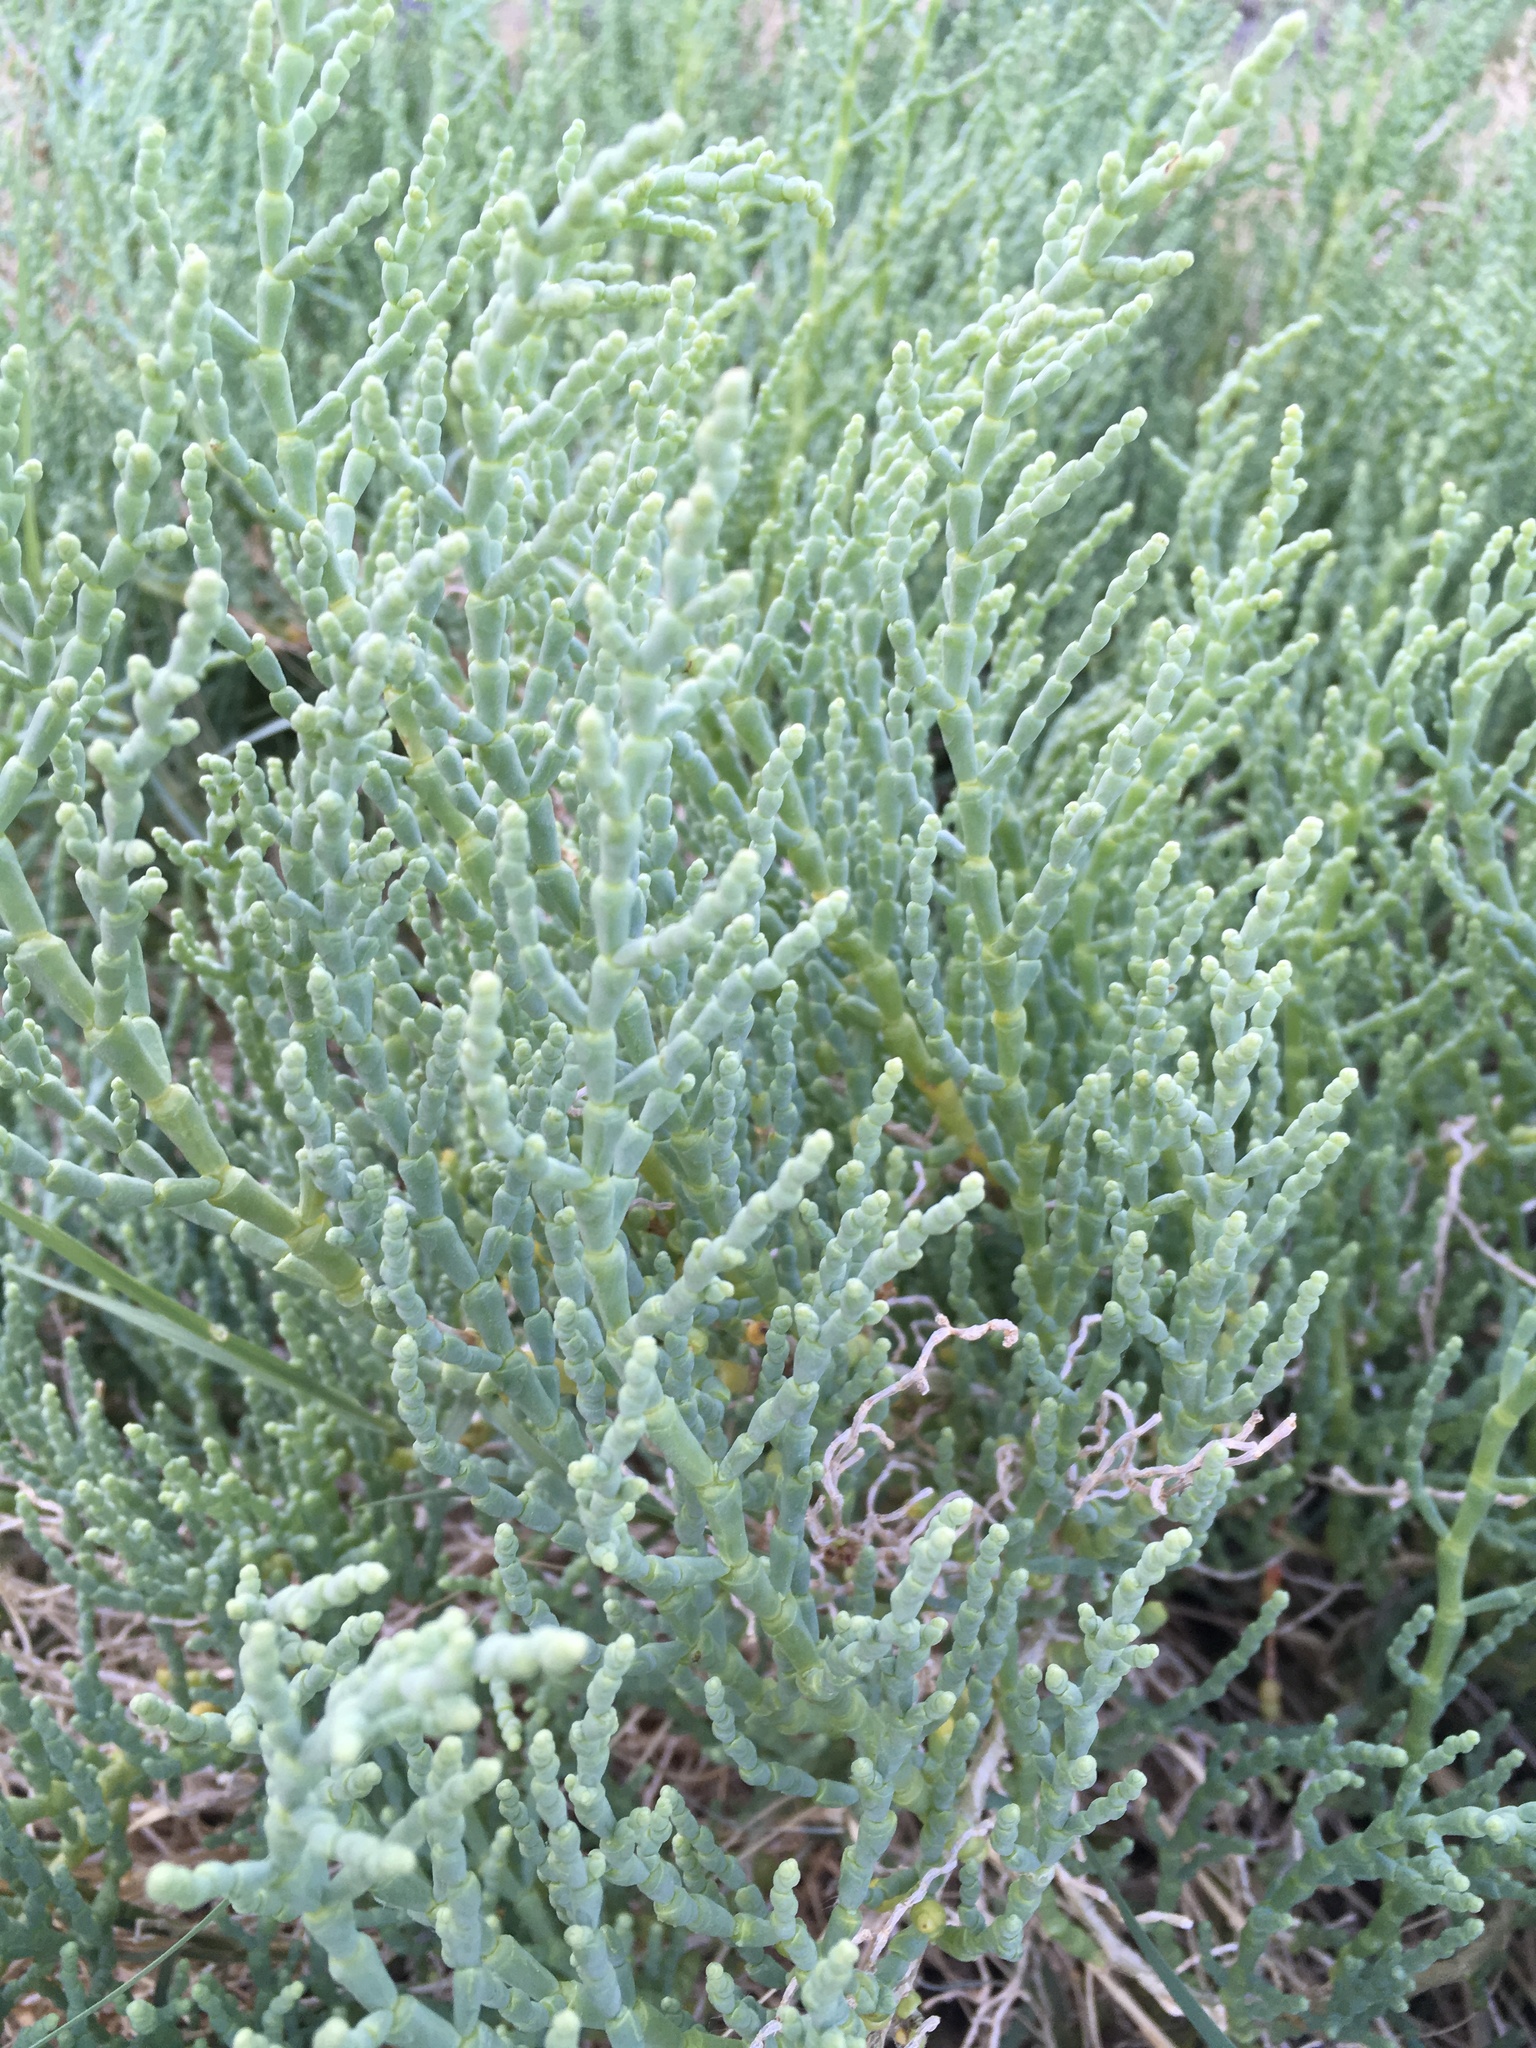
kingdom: Plantae
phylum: Tracheophyta
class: Magnoliopsida
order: Caryophyllales
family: Amaranthaceae
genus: Allenrolfea
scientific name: Allenrolfea occidentalis
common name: Iodine-bush
